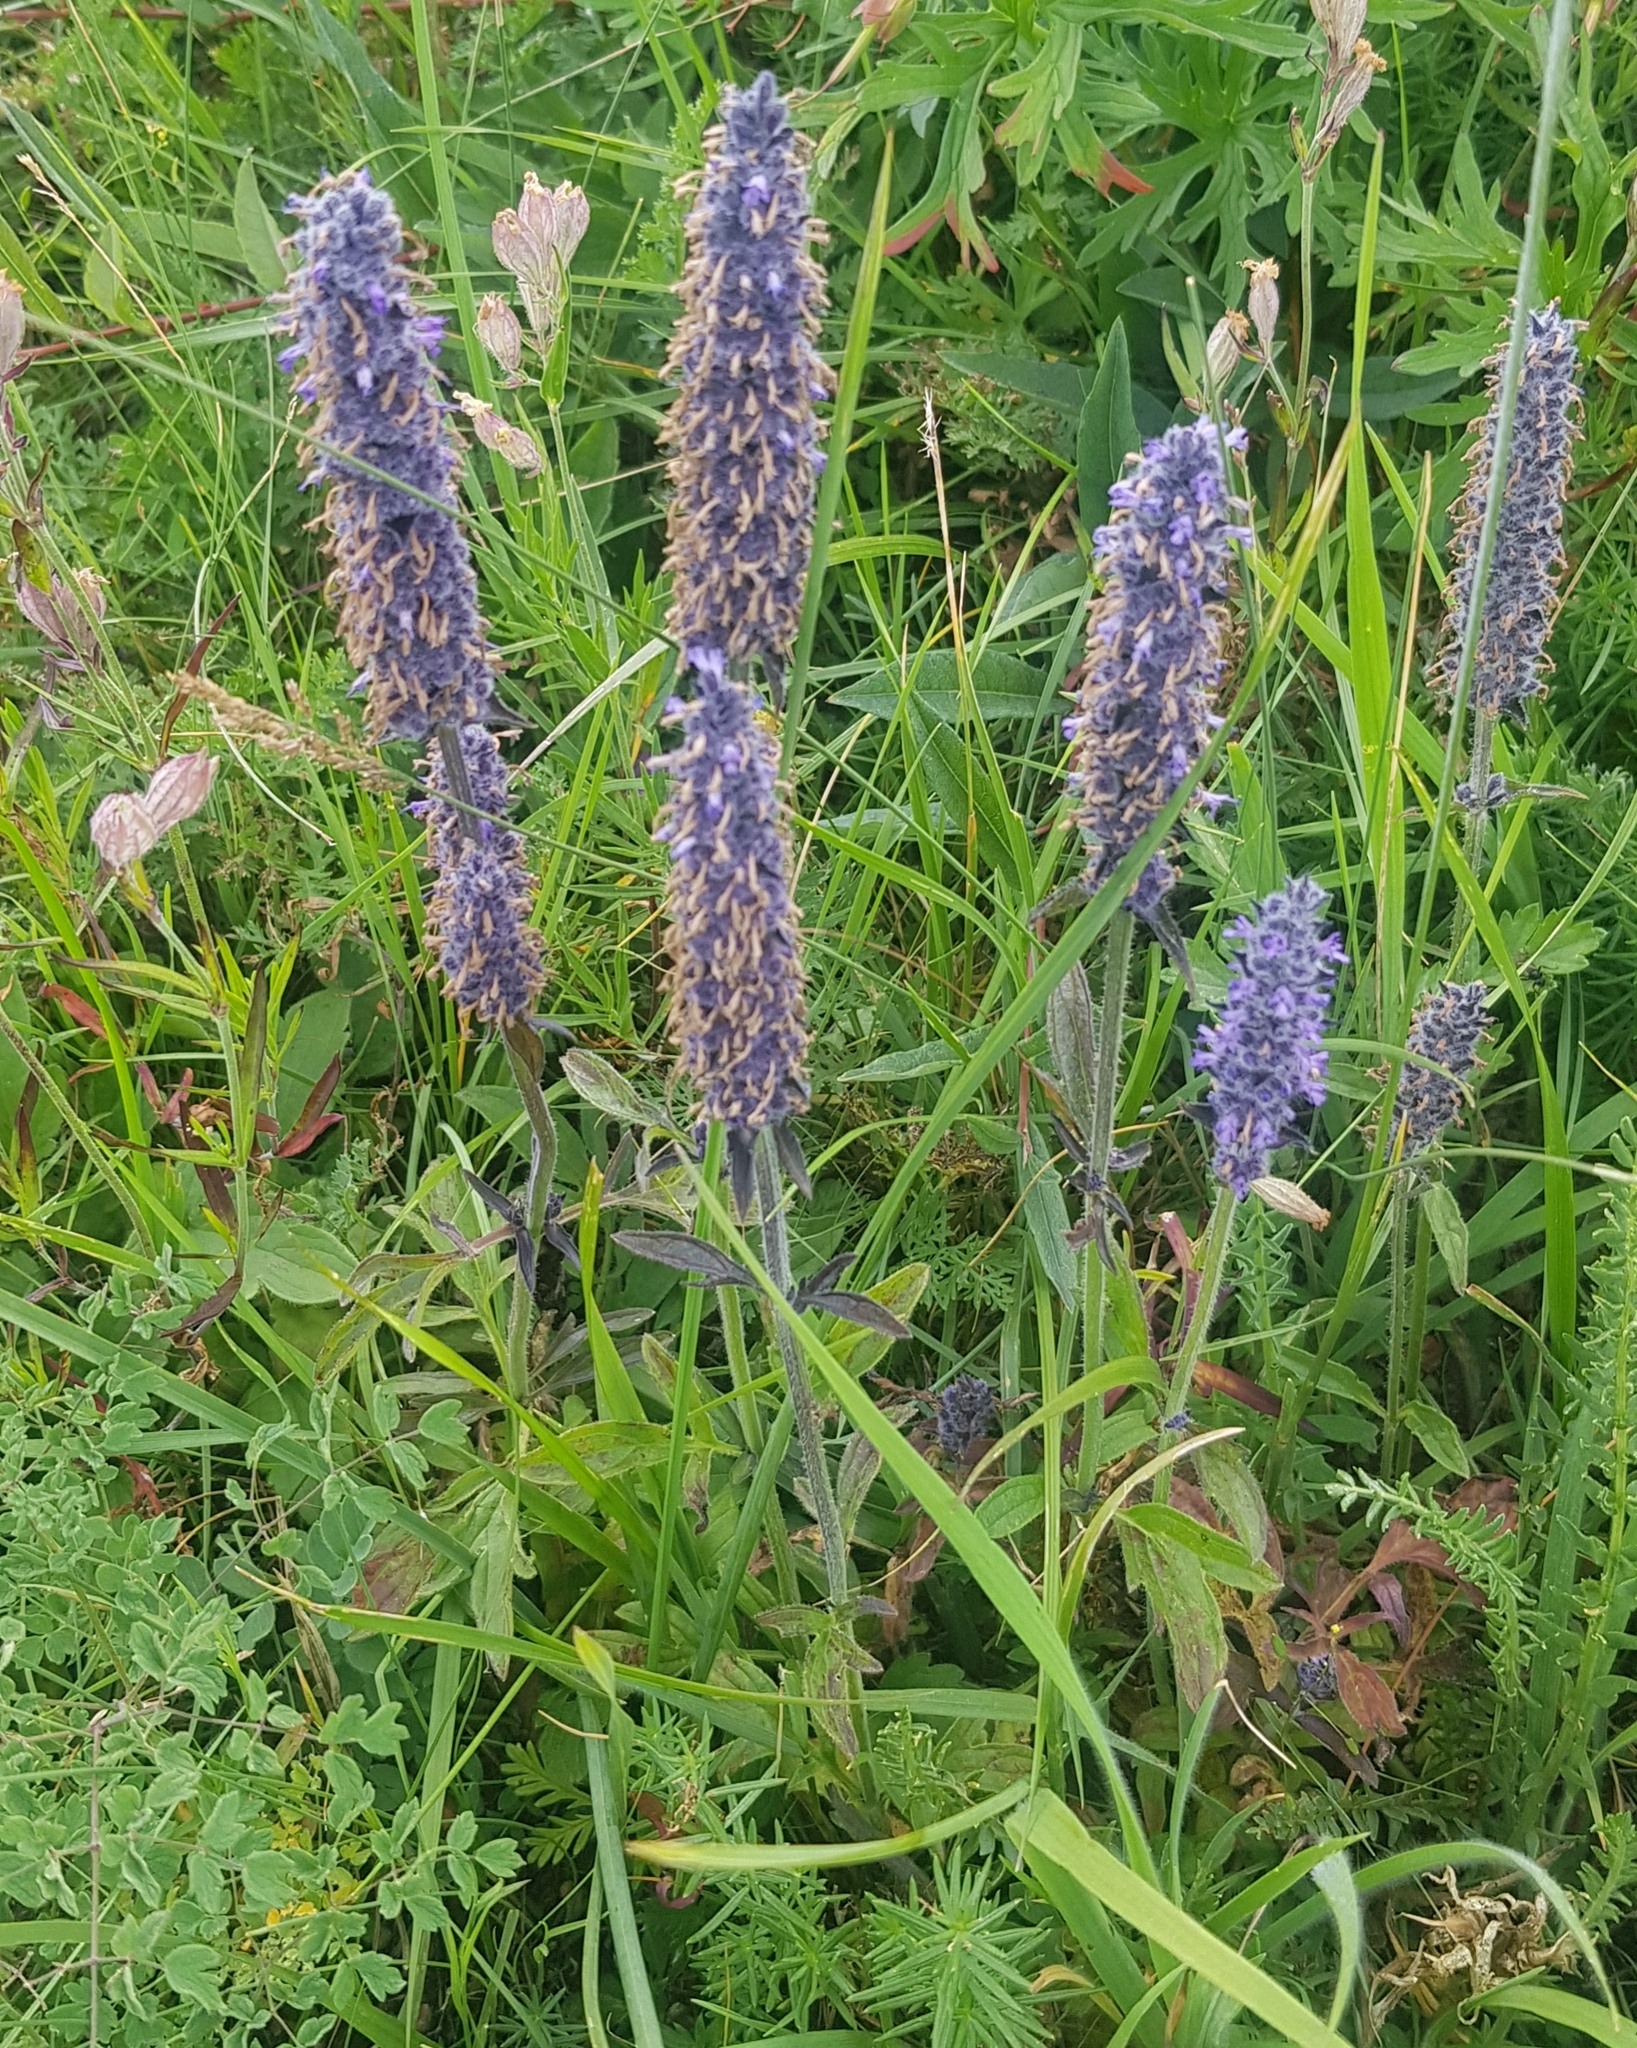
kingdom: Plantae
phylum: Tracheophyta
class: Magnoliopsida
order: Lamiales
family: Lamiaceae
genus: Nepeta
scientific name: Nepeta multifida
